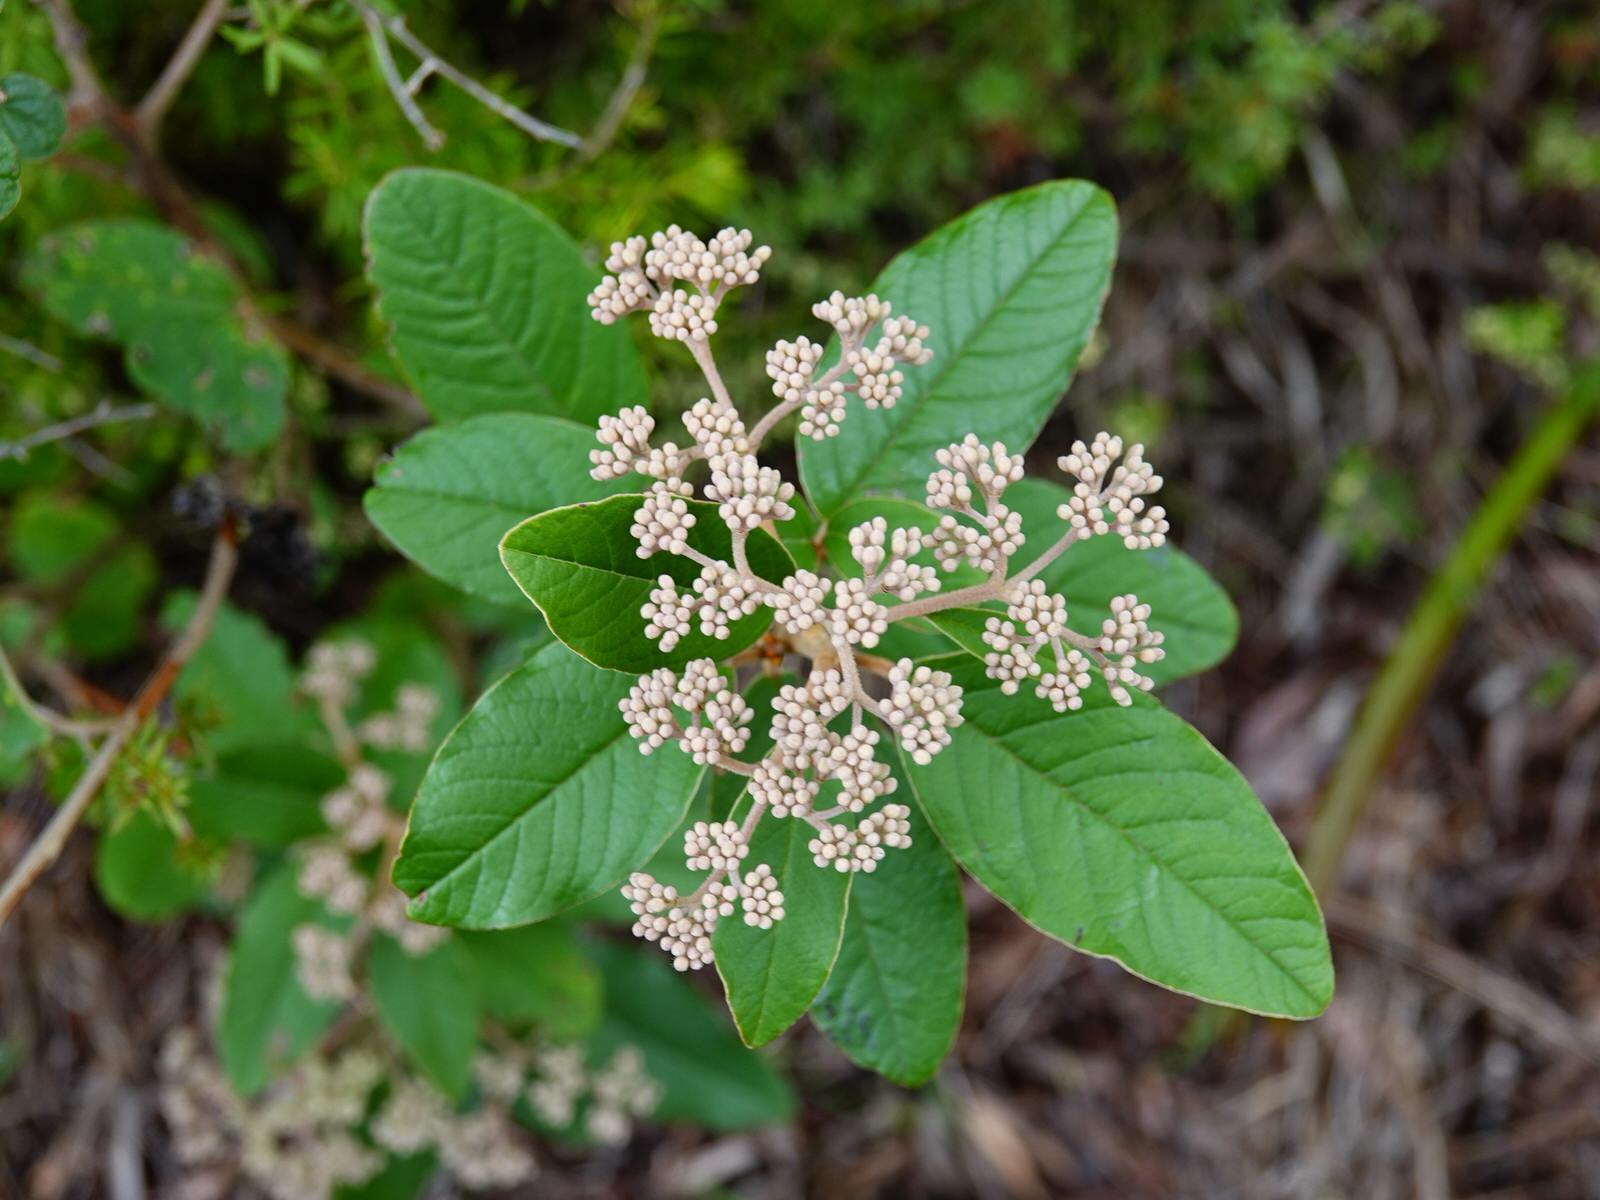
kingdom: Plantae
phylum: Tracheophyta
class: Magnoliopsida
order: Rosales
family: Rhamnaceae
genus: Pomaderris
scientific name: Pomaderris kumeraho
